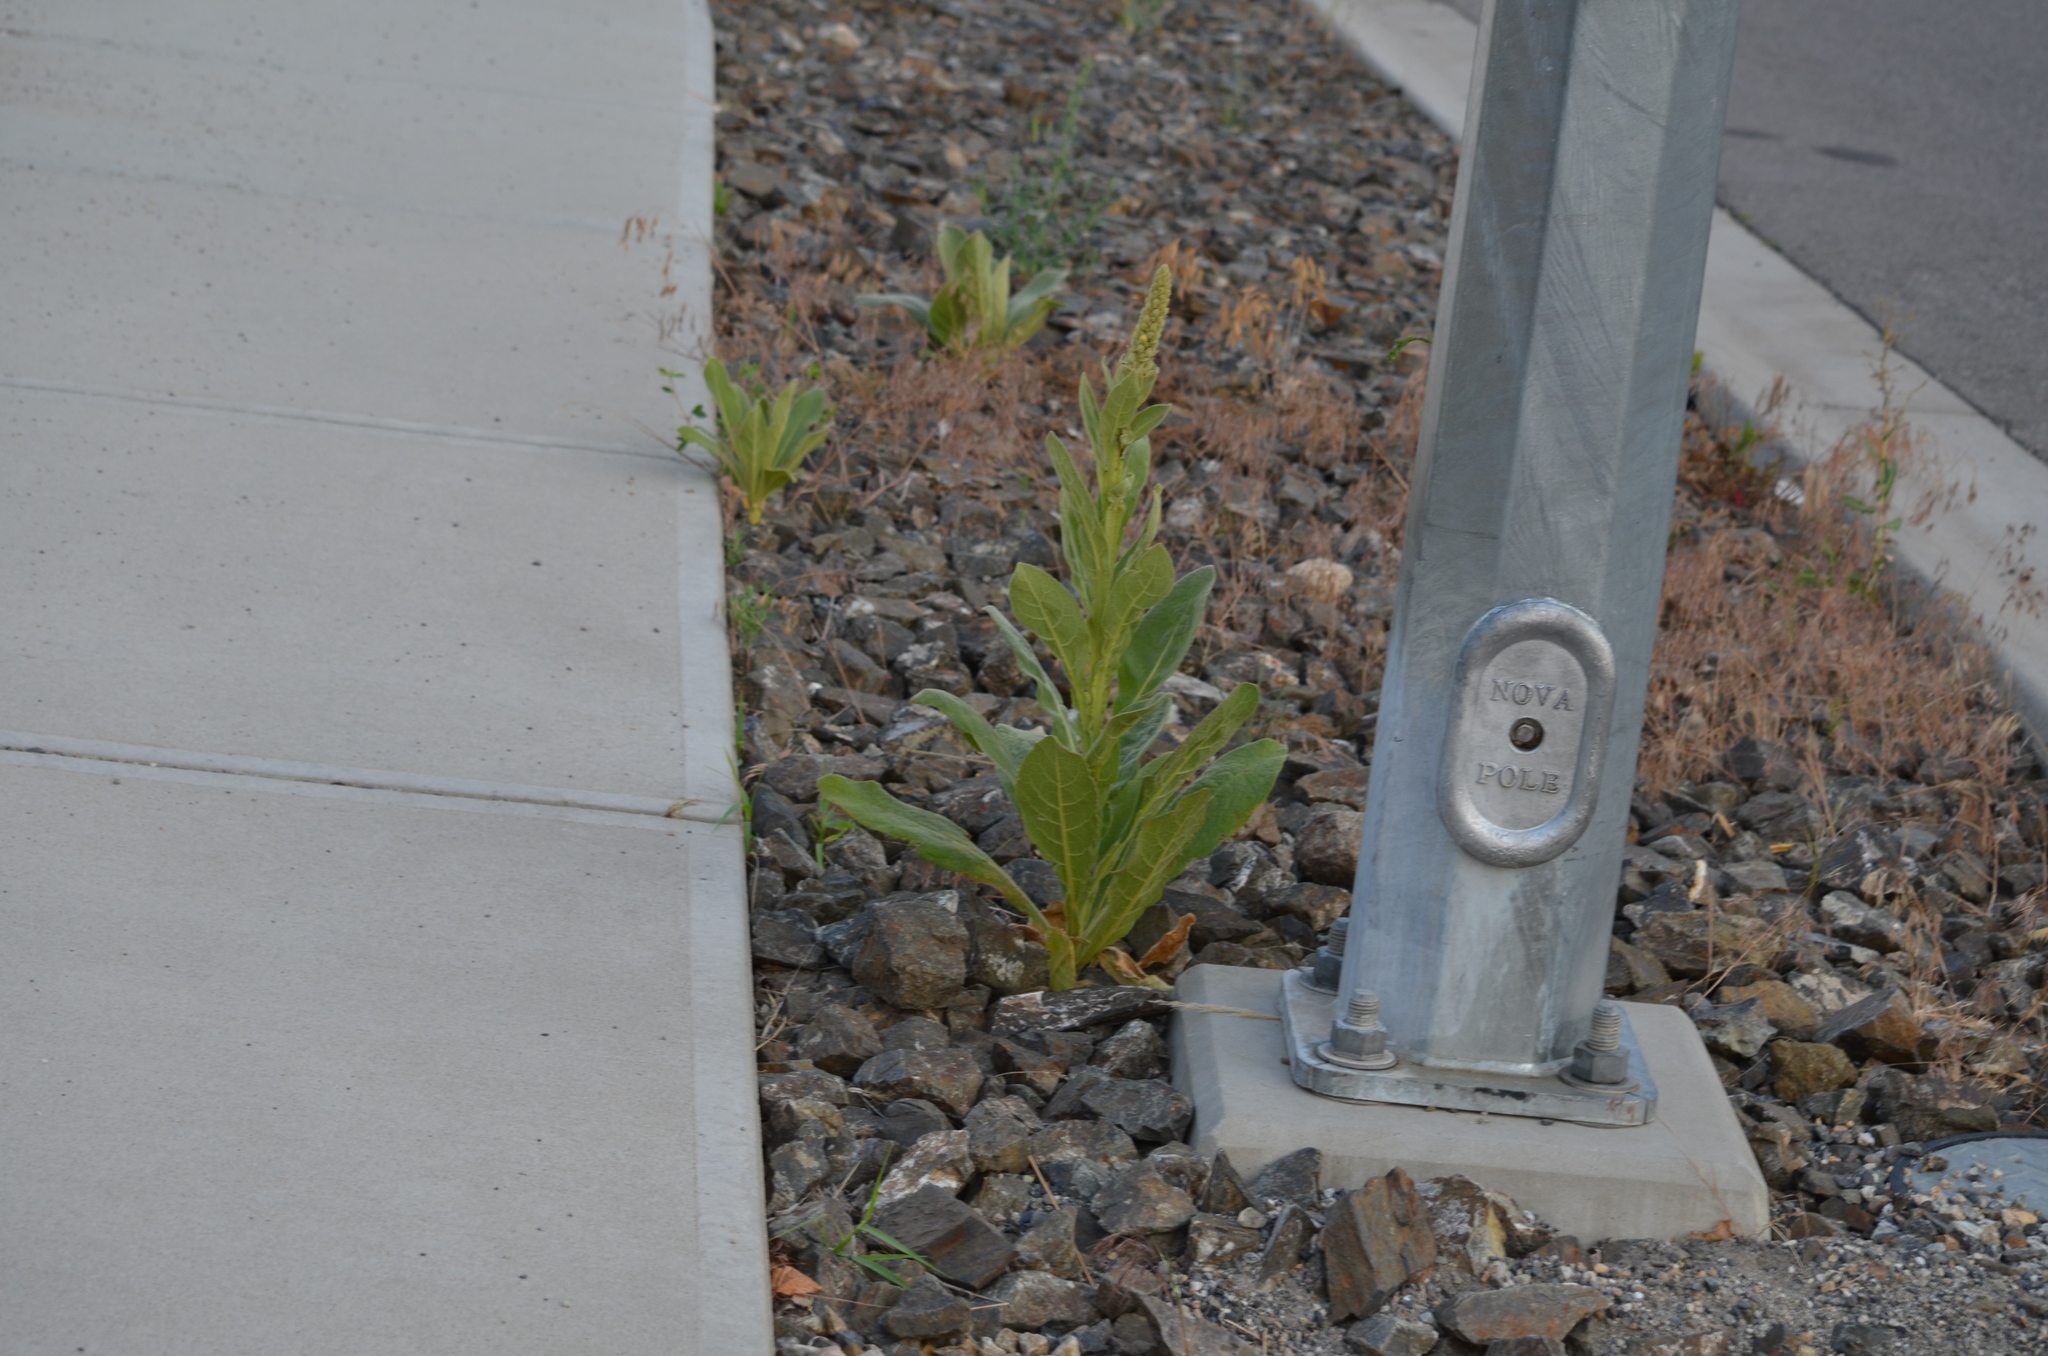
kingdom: Plantae
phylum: Tracheophyta
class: Magnoliopsida
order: Lamiales
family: Scrophulariaceae
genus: Verbascum
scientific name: Verbascum thapsus
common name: Common mullein
